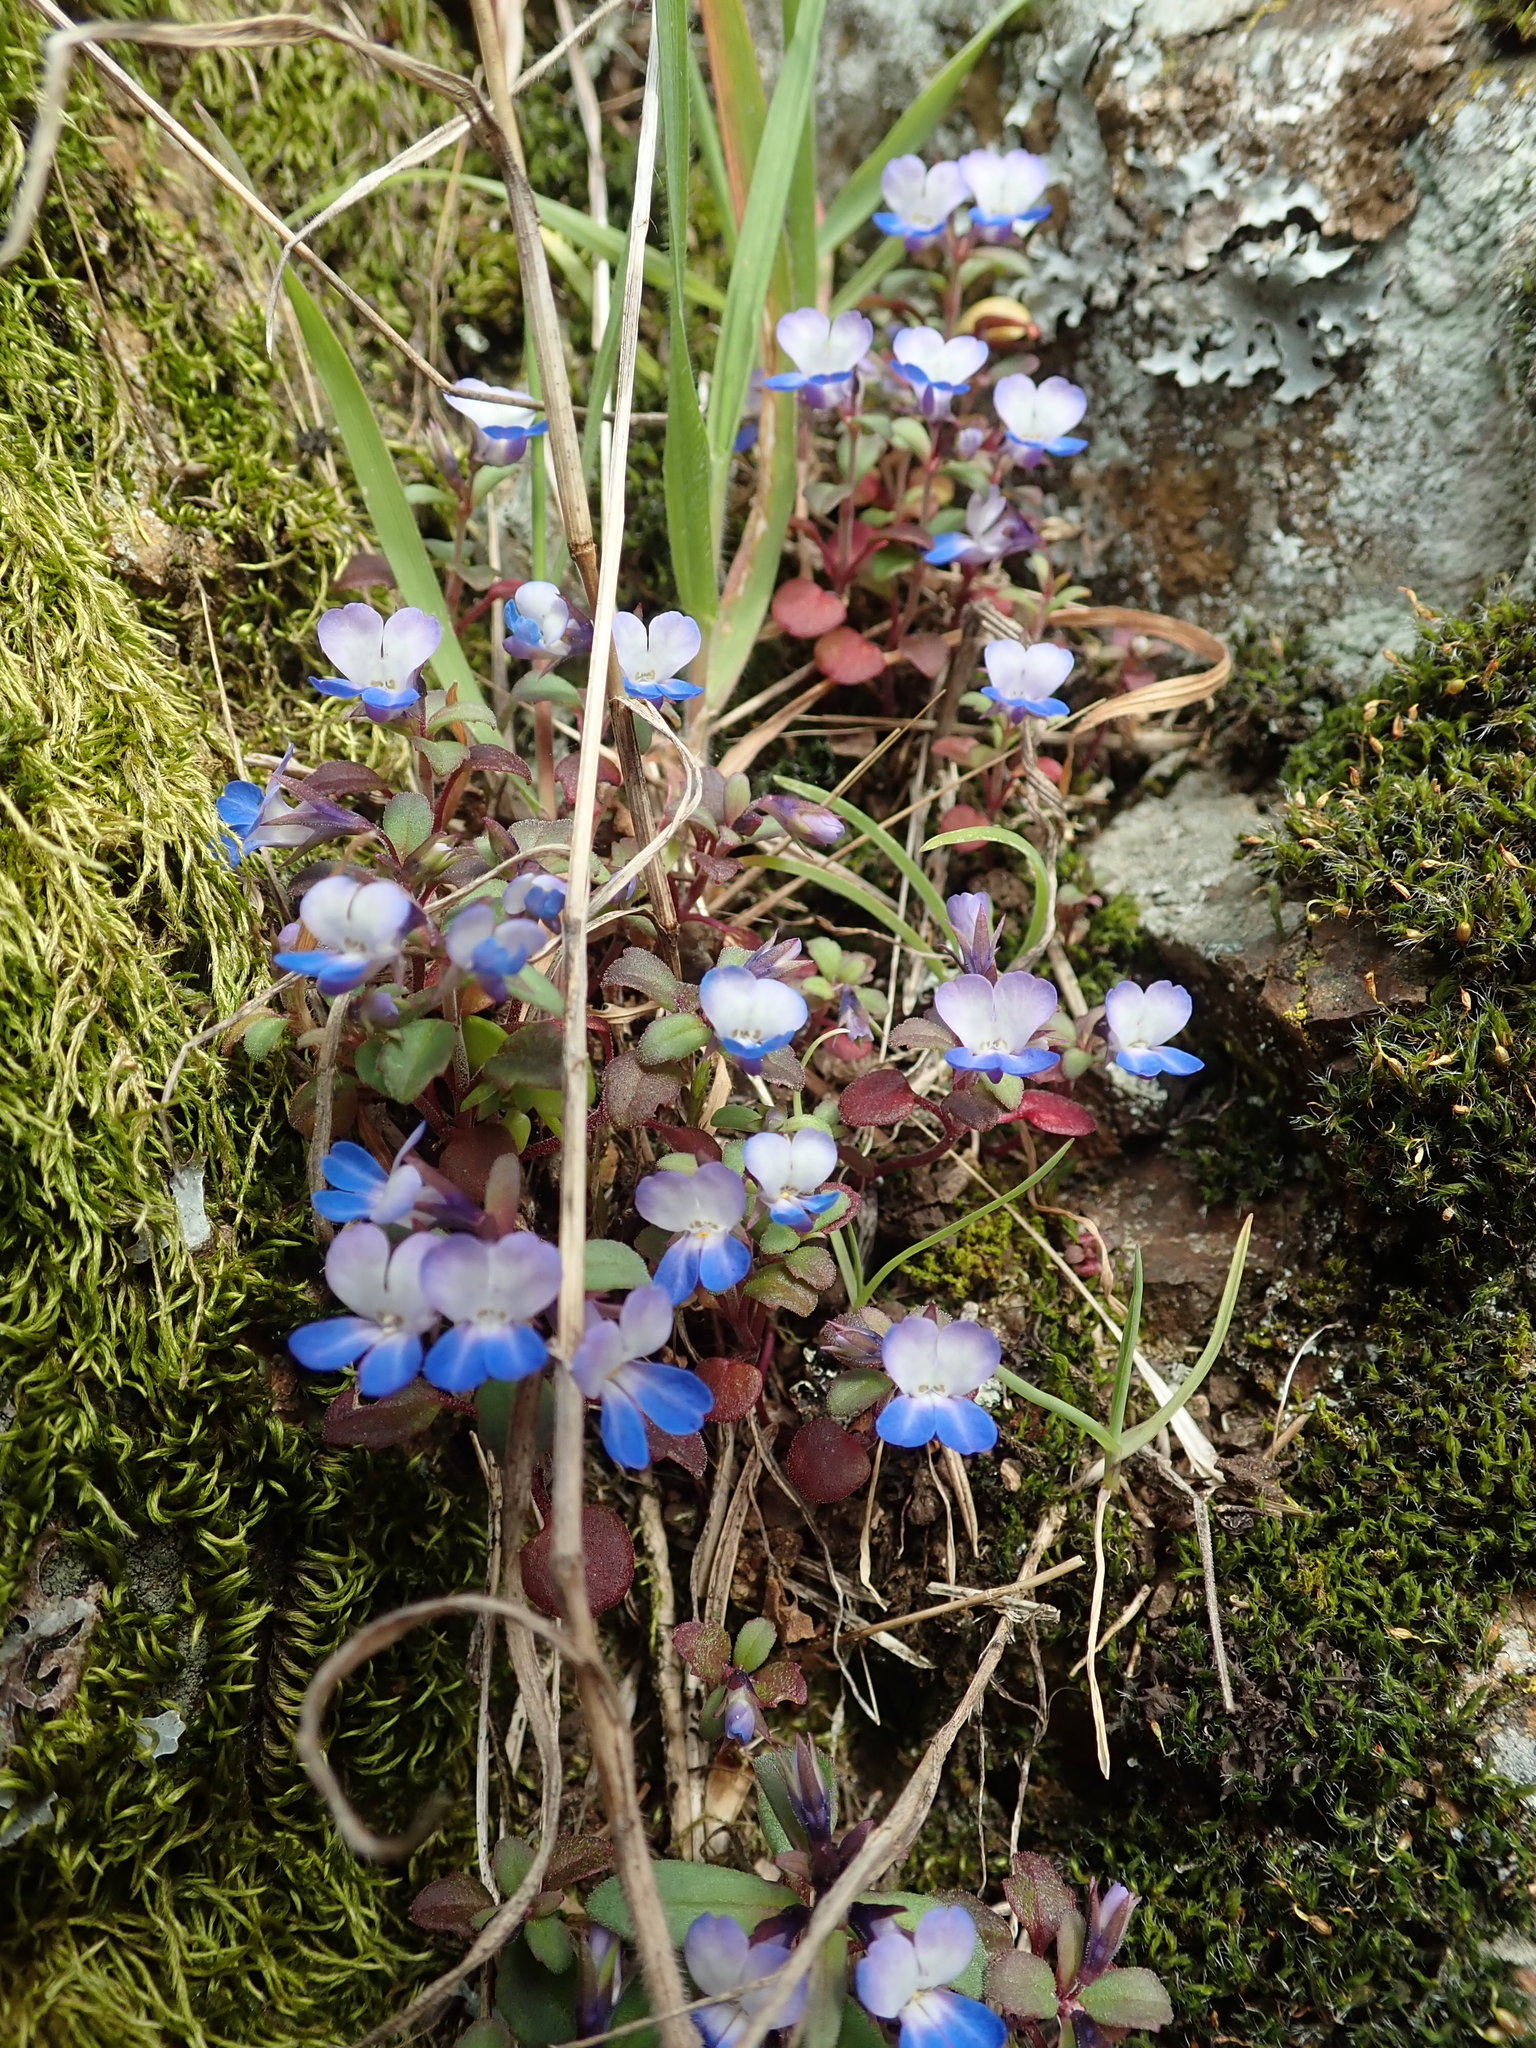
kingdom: Plantae
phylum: Tracheophyta
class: Magnoliopsida
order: Lamiales
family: Plantaginaceae
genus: Collinsia
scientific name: Collinsia grandiflora
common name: Large-flower blue-eyed-mary
